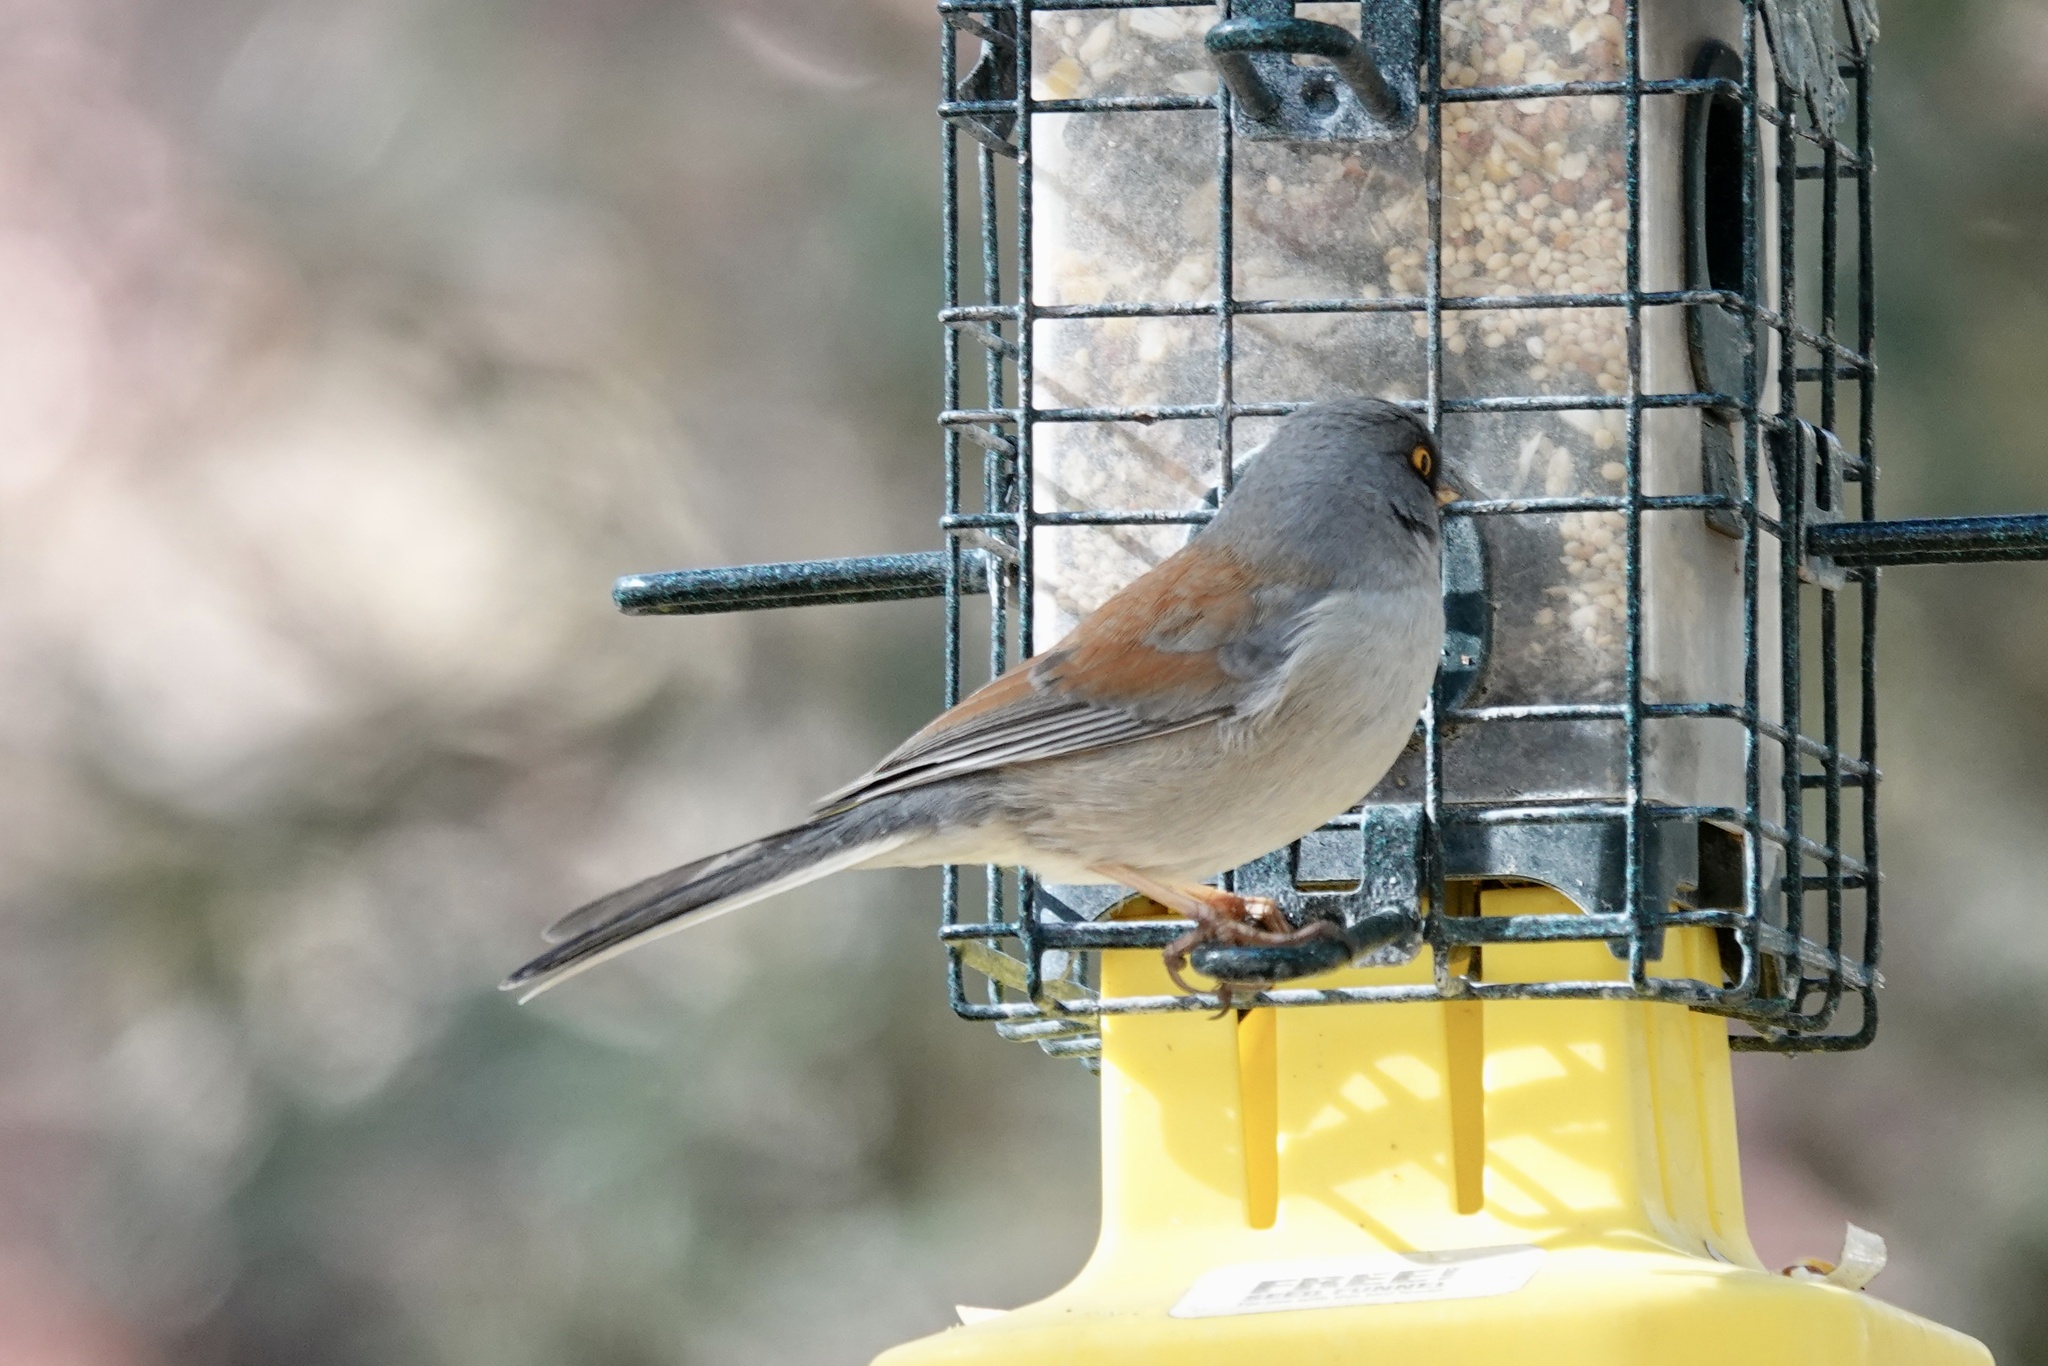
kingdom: Animalia
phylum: Chordata
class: Aves
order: Passeriformes
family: Passerellidae
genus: Junco
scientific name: Junco phaeonotus
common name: Yellow-eyed junco
